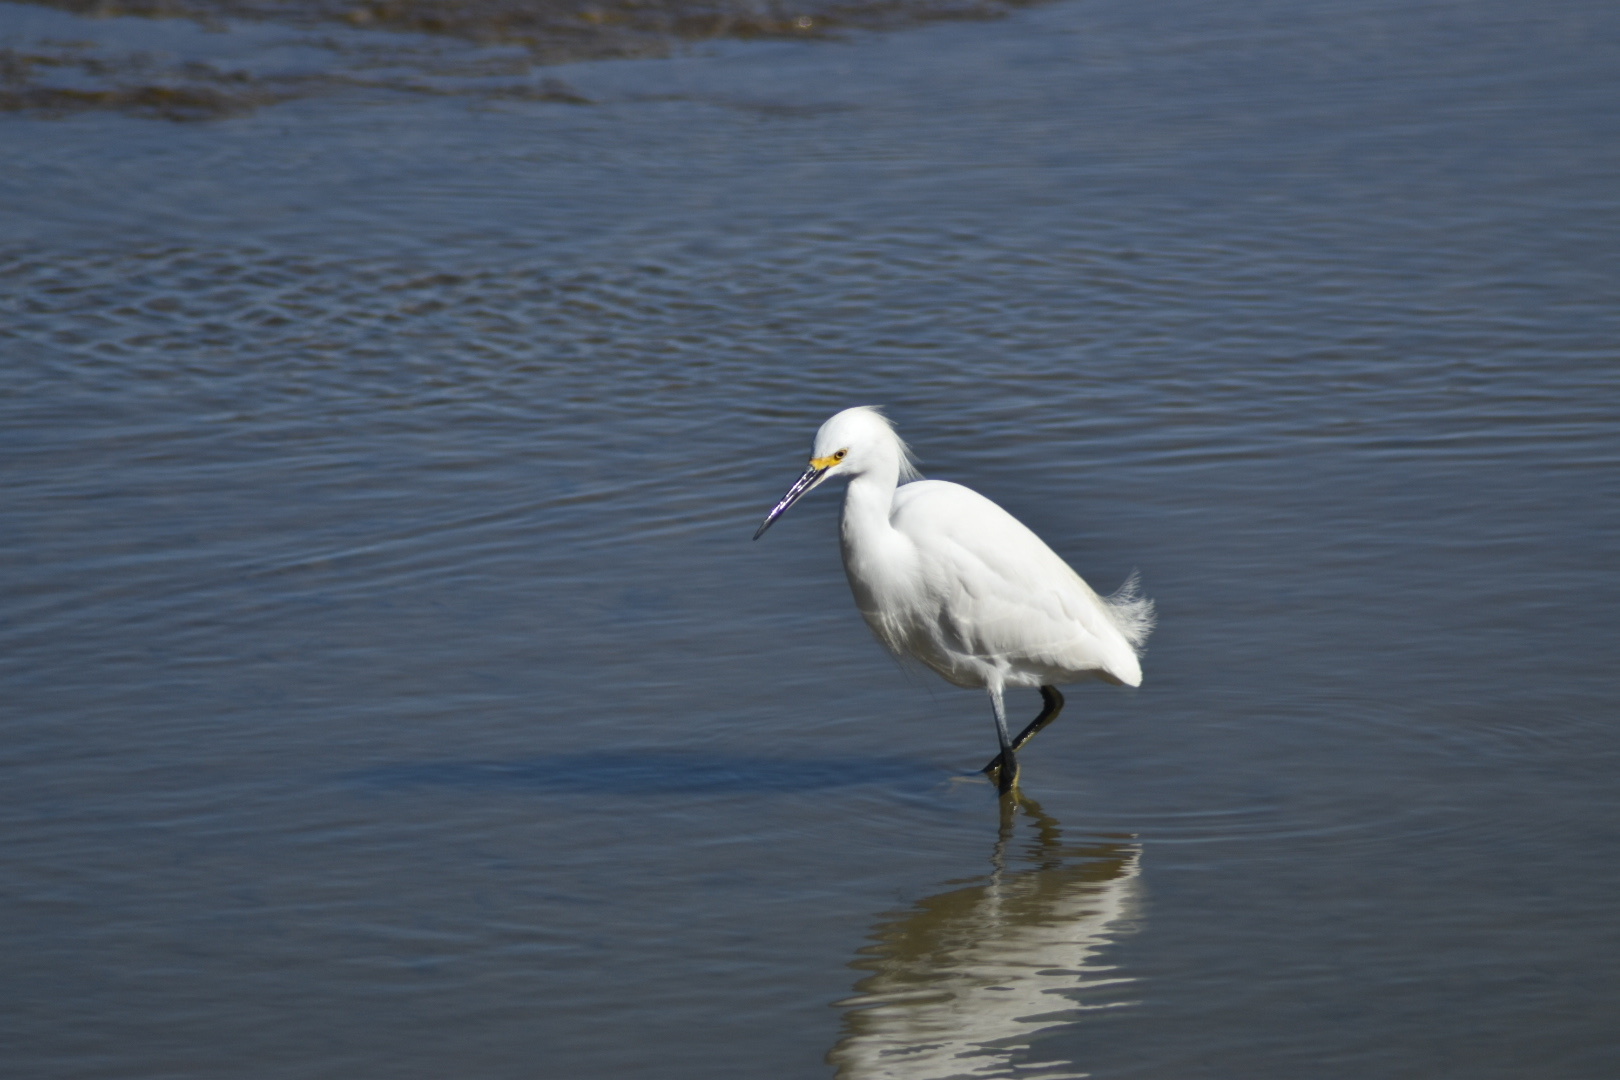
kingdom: Animalia
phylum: Chordata
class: Aves
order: Pelecaniformes
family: Ardeidae
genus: Egretta
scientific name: Egretta thula
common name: Snowy egret
